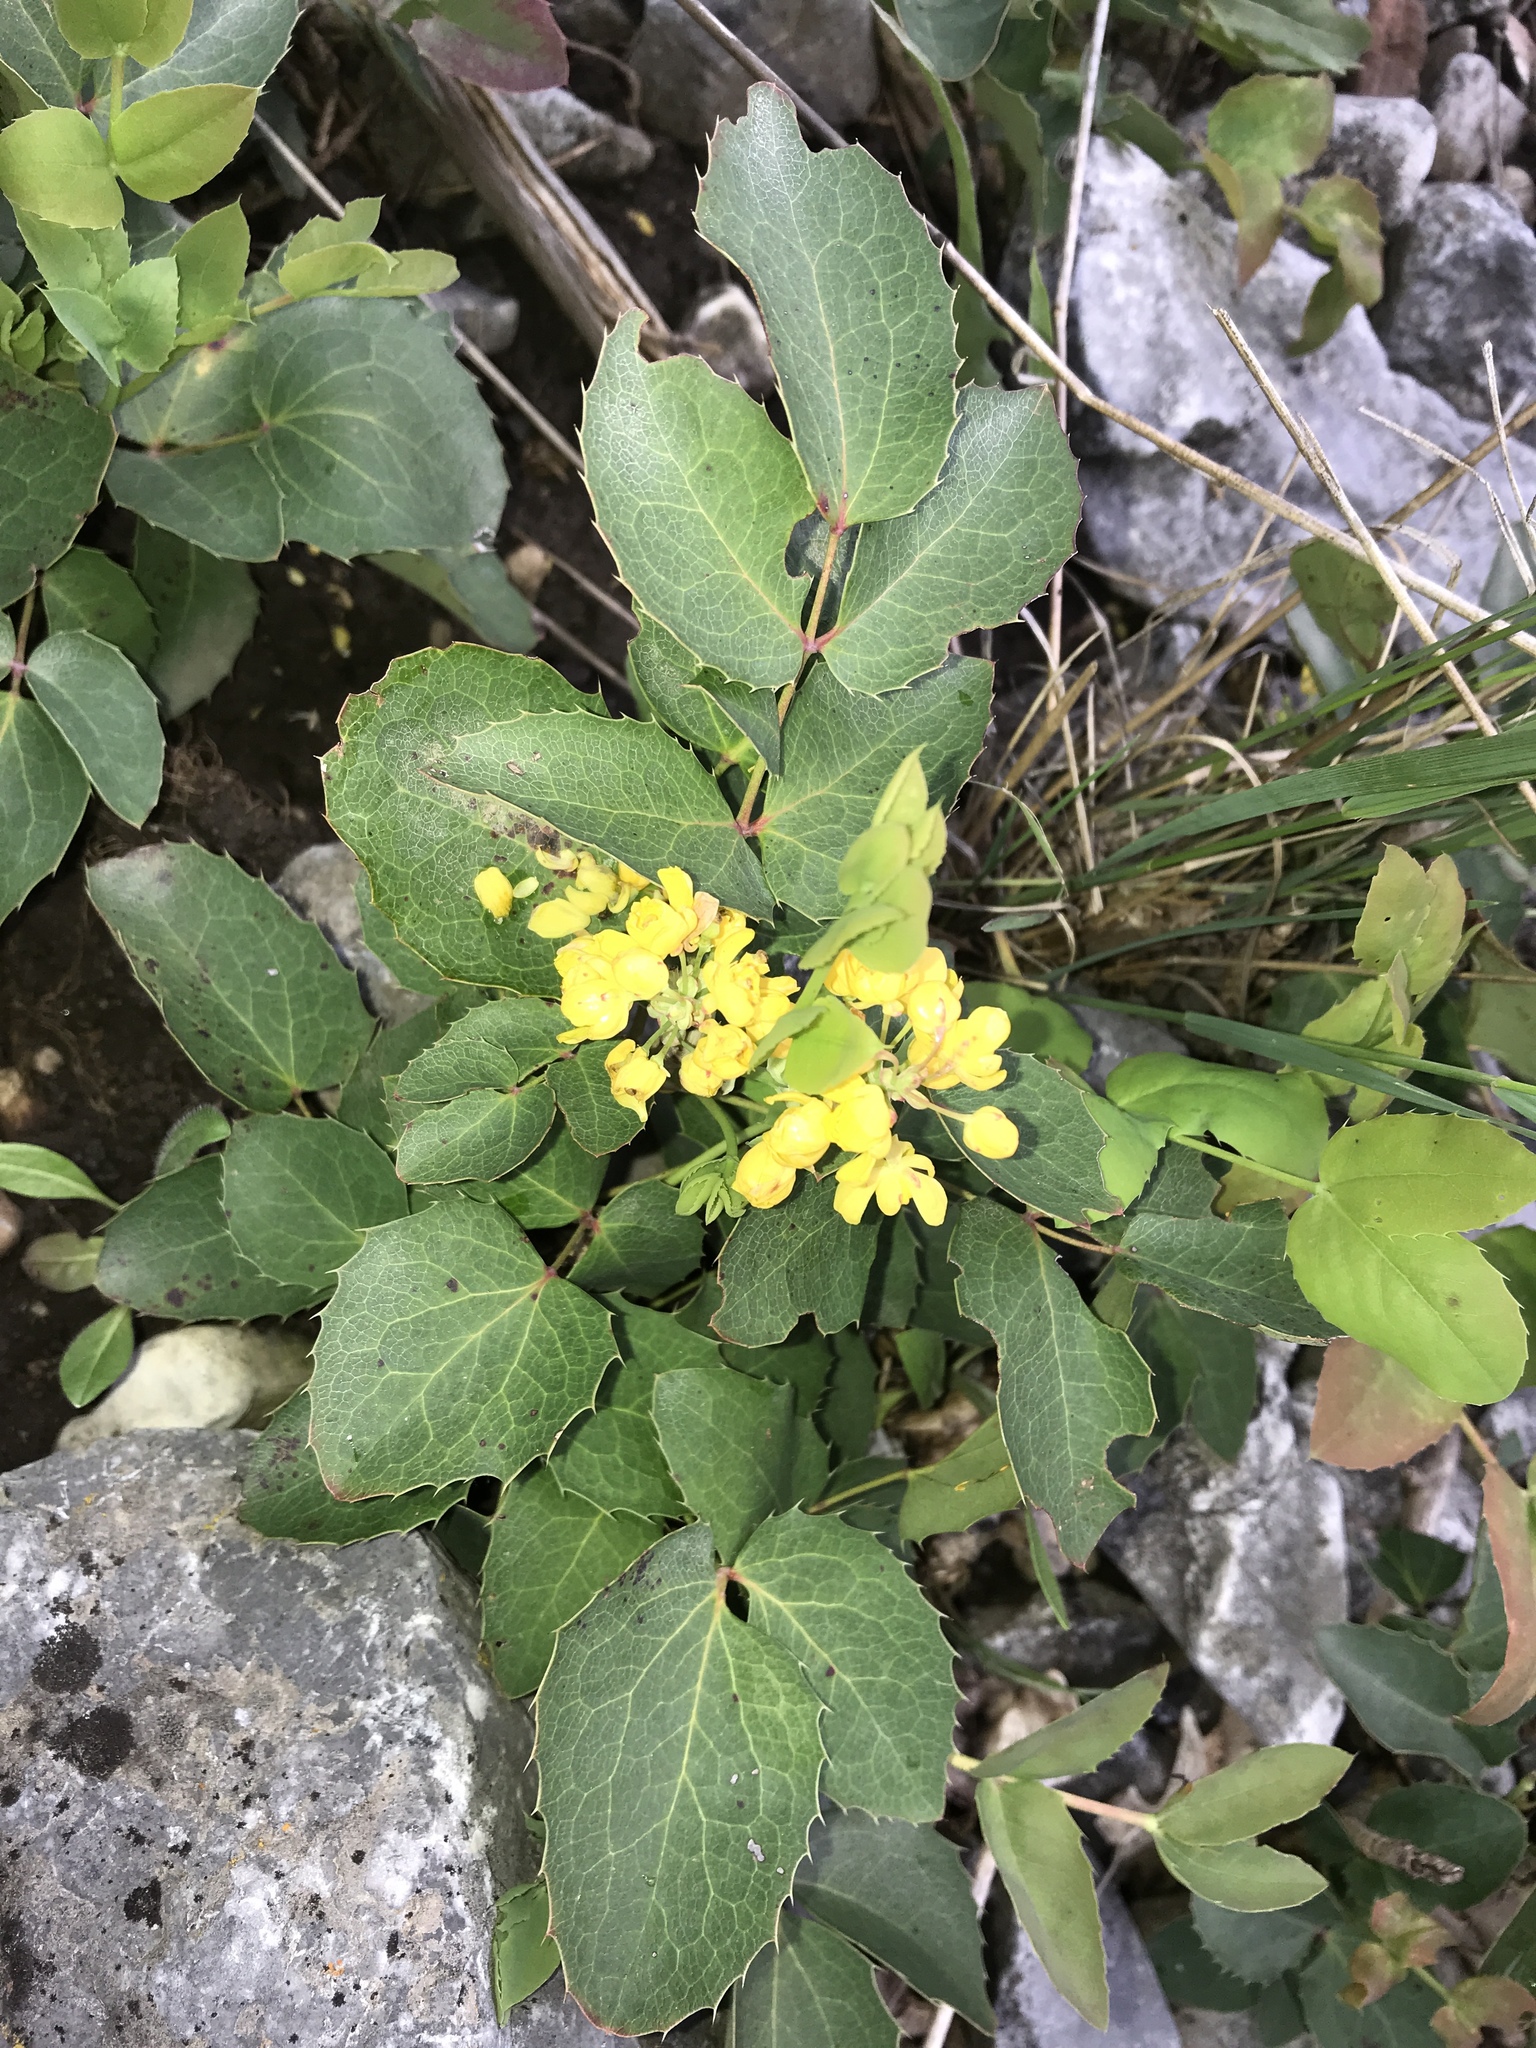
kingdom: Plantae
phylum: Tracheophyta
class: Magnoliopsida
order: Ranunculales
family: Berberidaceae
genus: Mahonia
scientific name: Mahonia repens
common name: Creeping oregon-grape
